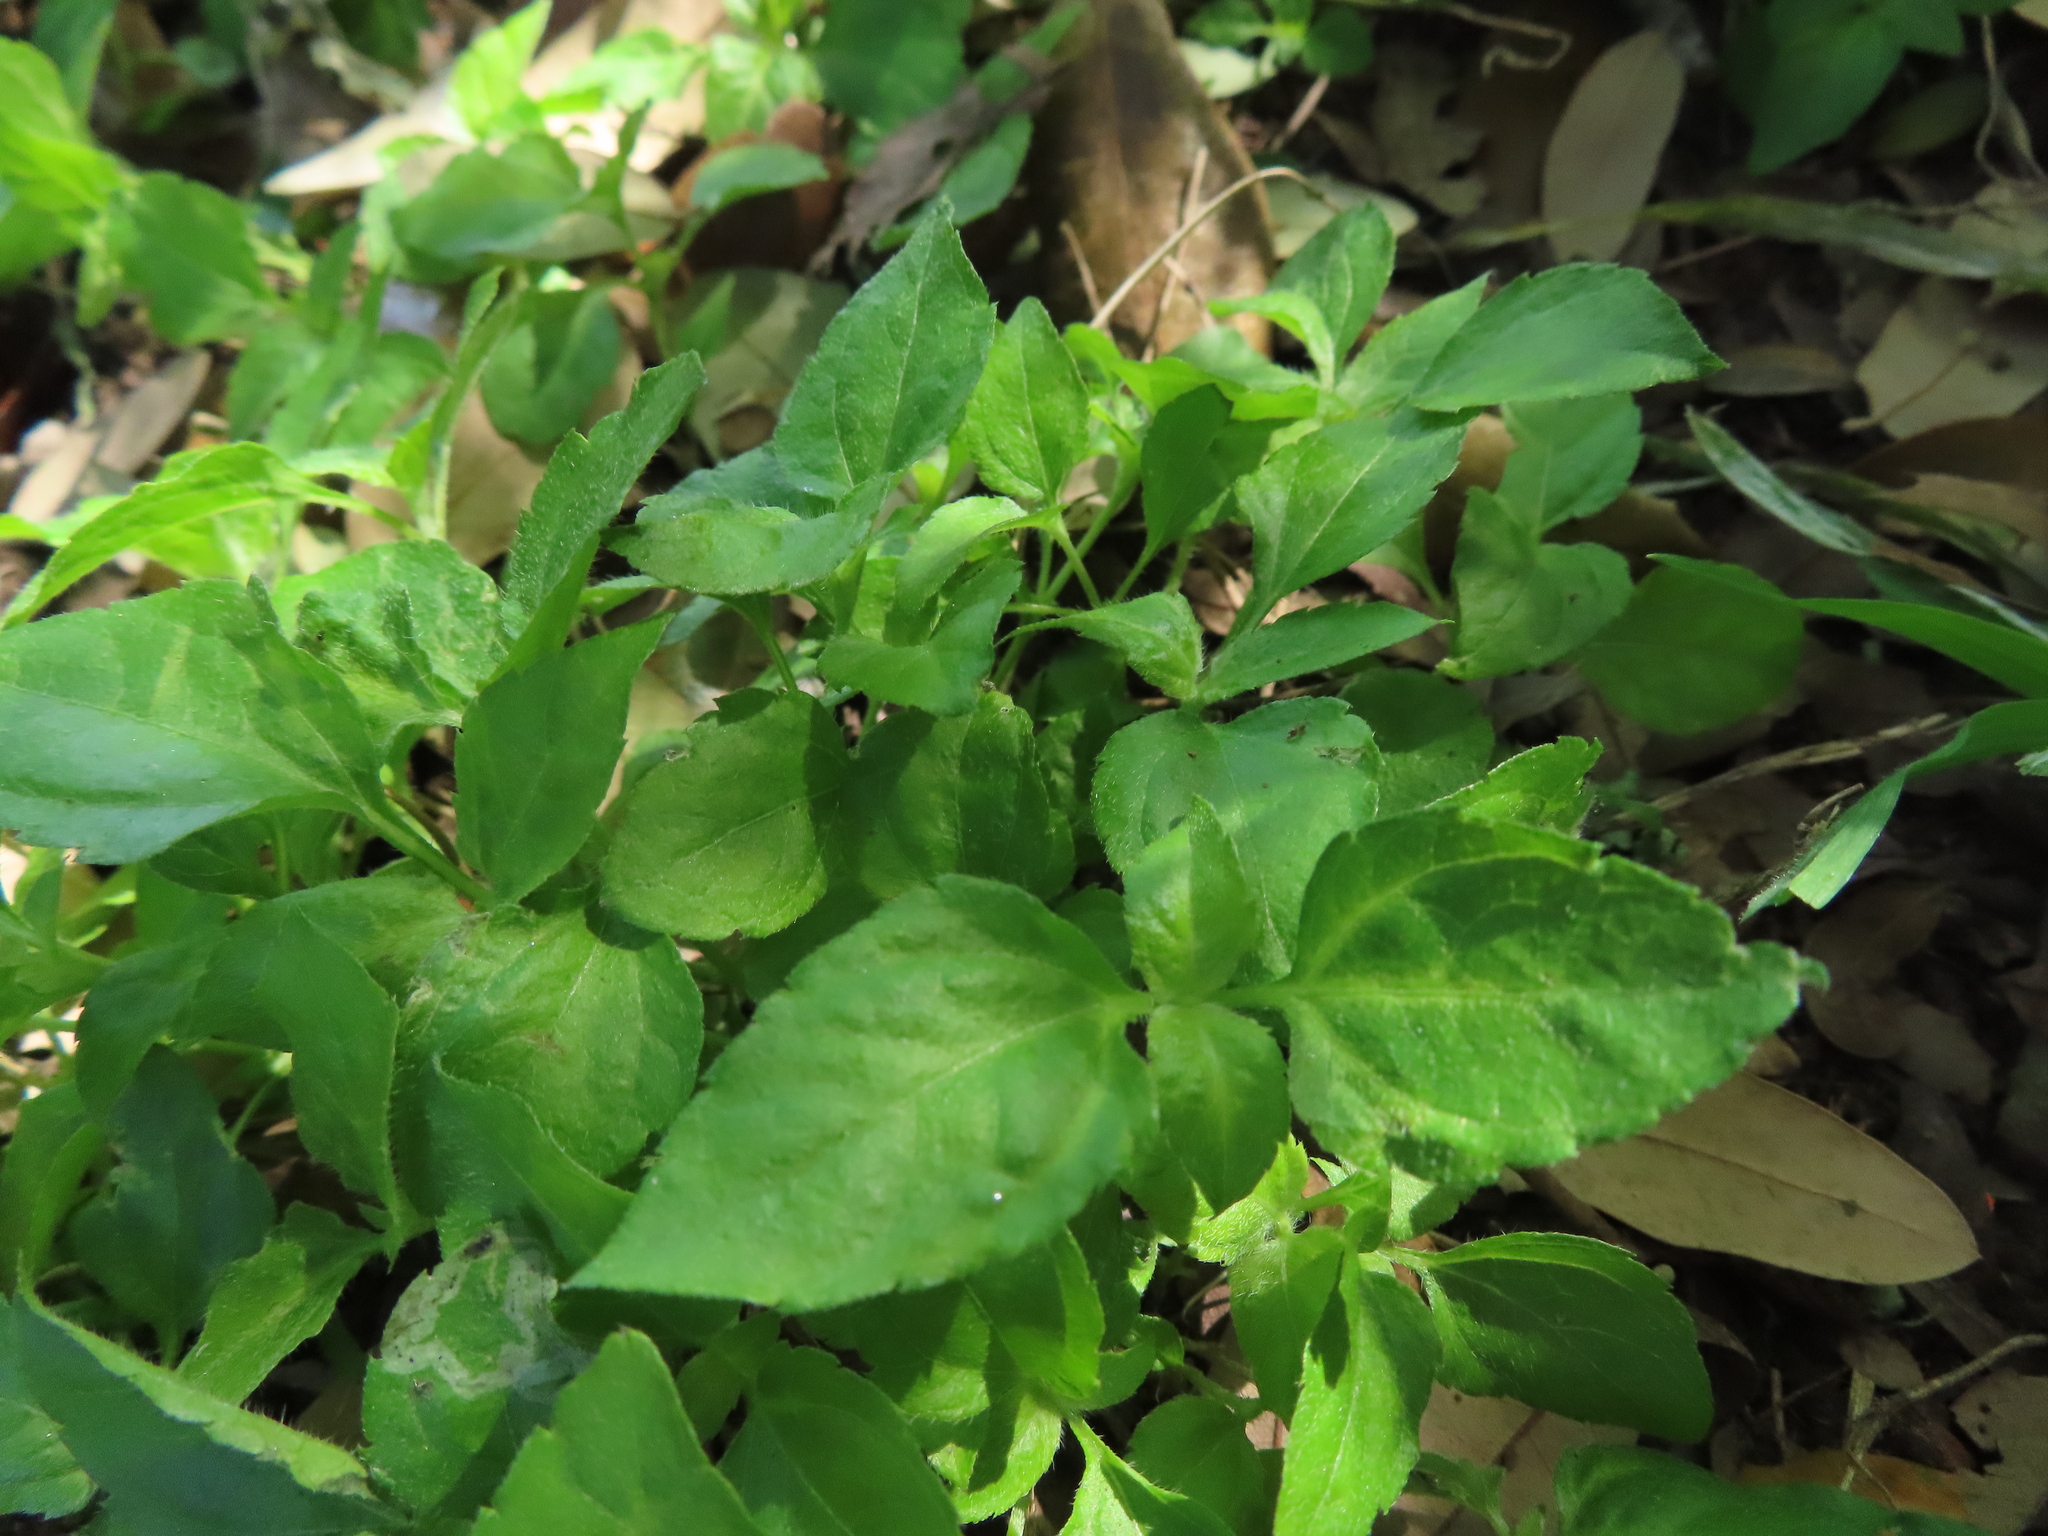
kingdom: Plantae
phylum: Tracheophyta
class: Magnoliopsida
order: Asterales
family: Asteraceae
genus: Calyptocarpus
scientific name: Calyptocarpus vialis
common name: Straggler daisy
